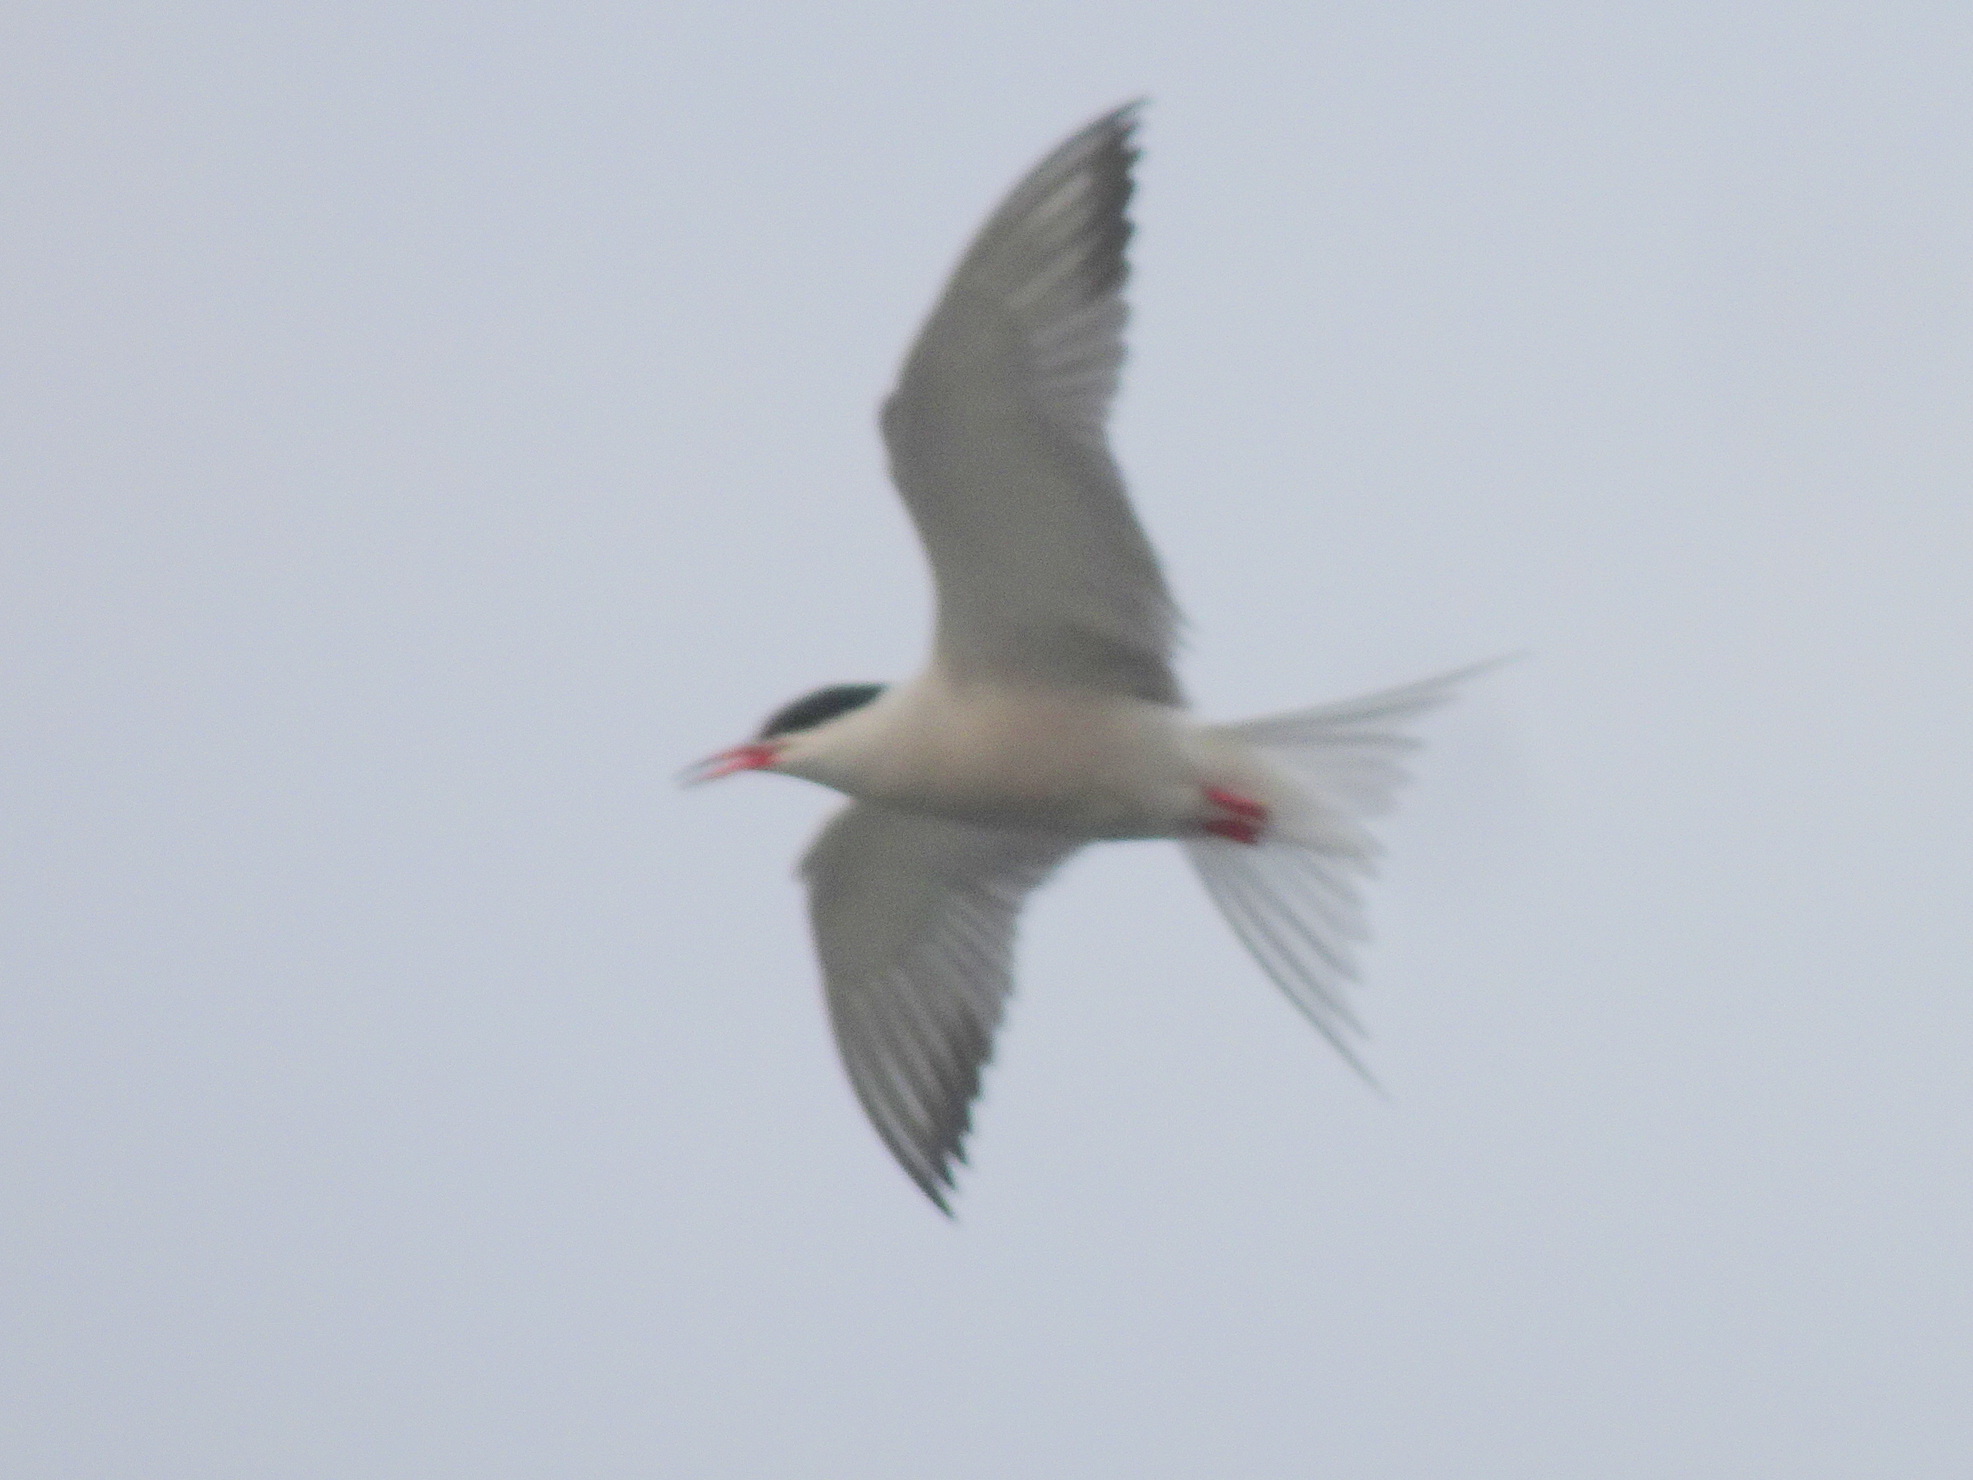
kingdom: Animalia
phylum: Chordata
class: Aves
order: Charadriiformes
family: Laridae
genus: Sterna
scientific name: Sterna hirundo
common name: Common tern
